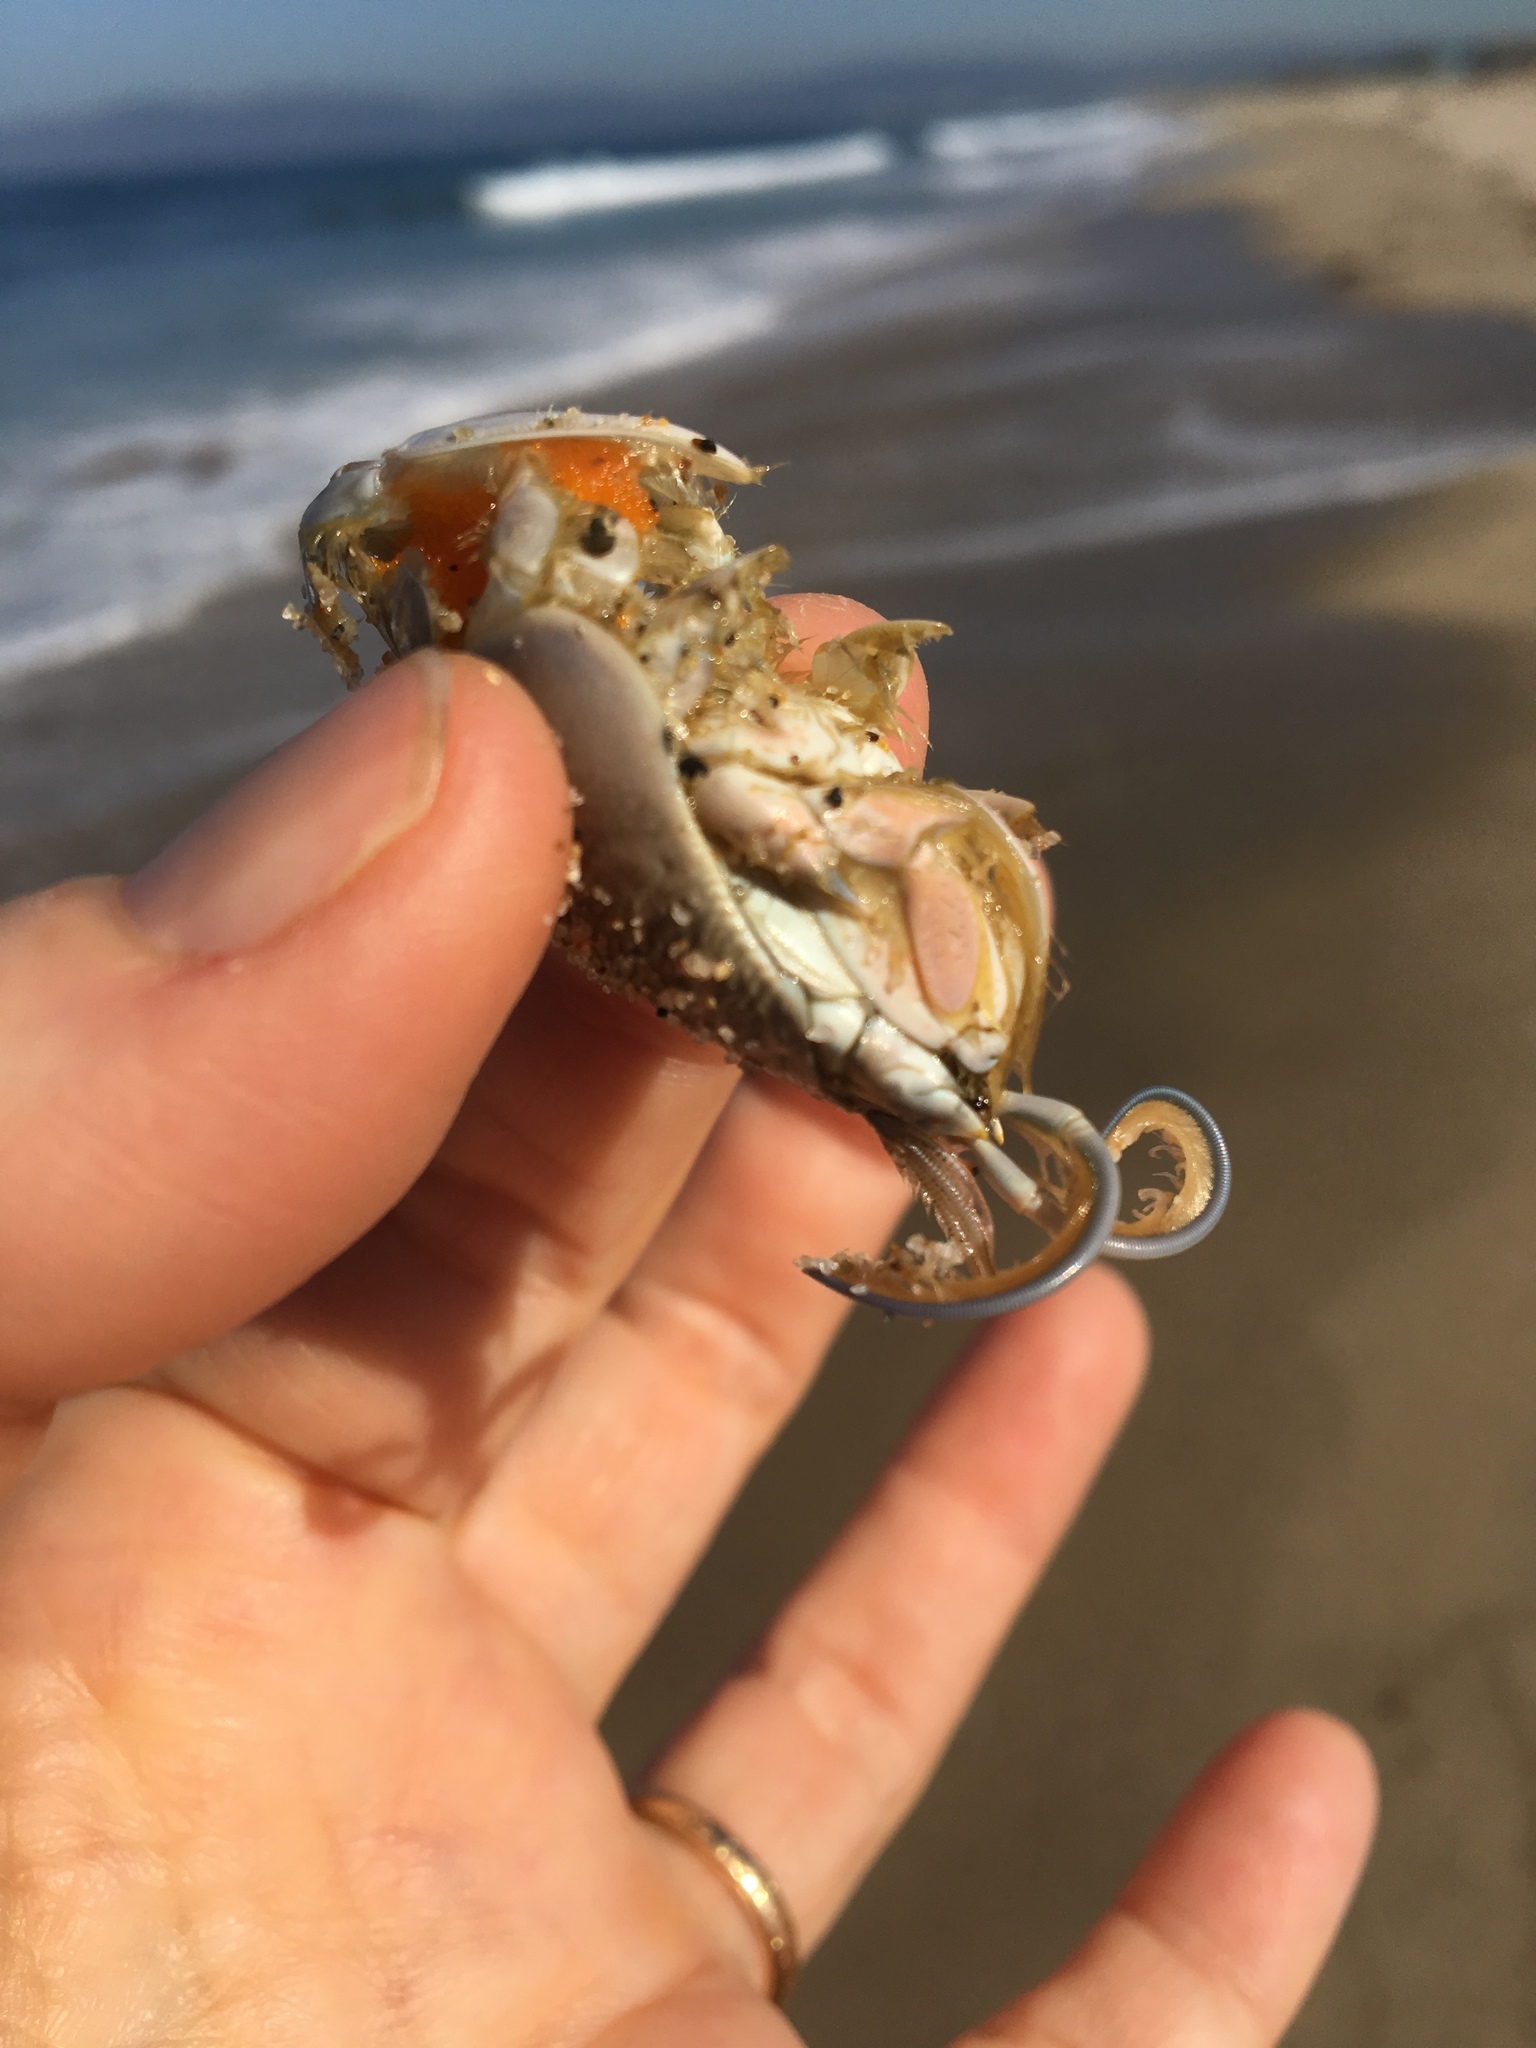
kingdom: Animalia
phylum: Arthropoda
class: Malacostraca
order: Decapoda
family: Hippidae
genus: Emerita
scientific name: Emerita analoga
